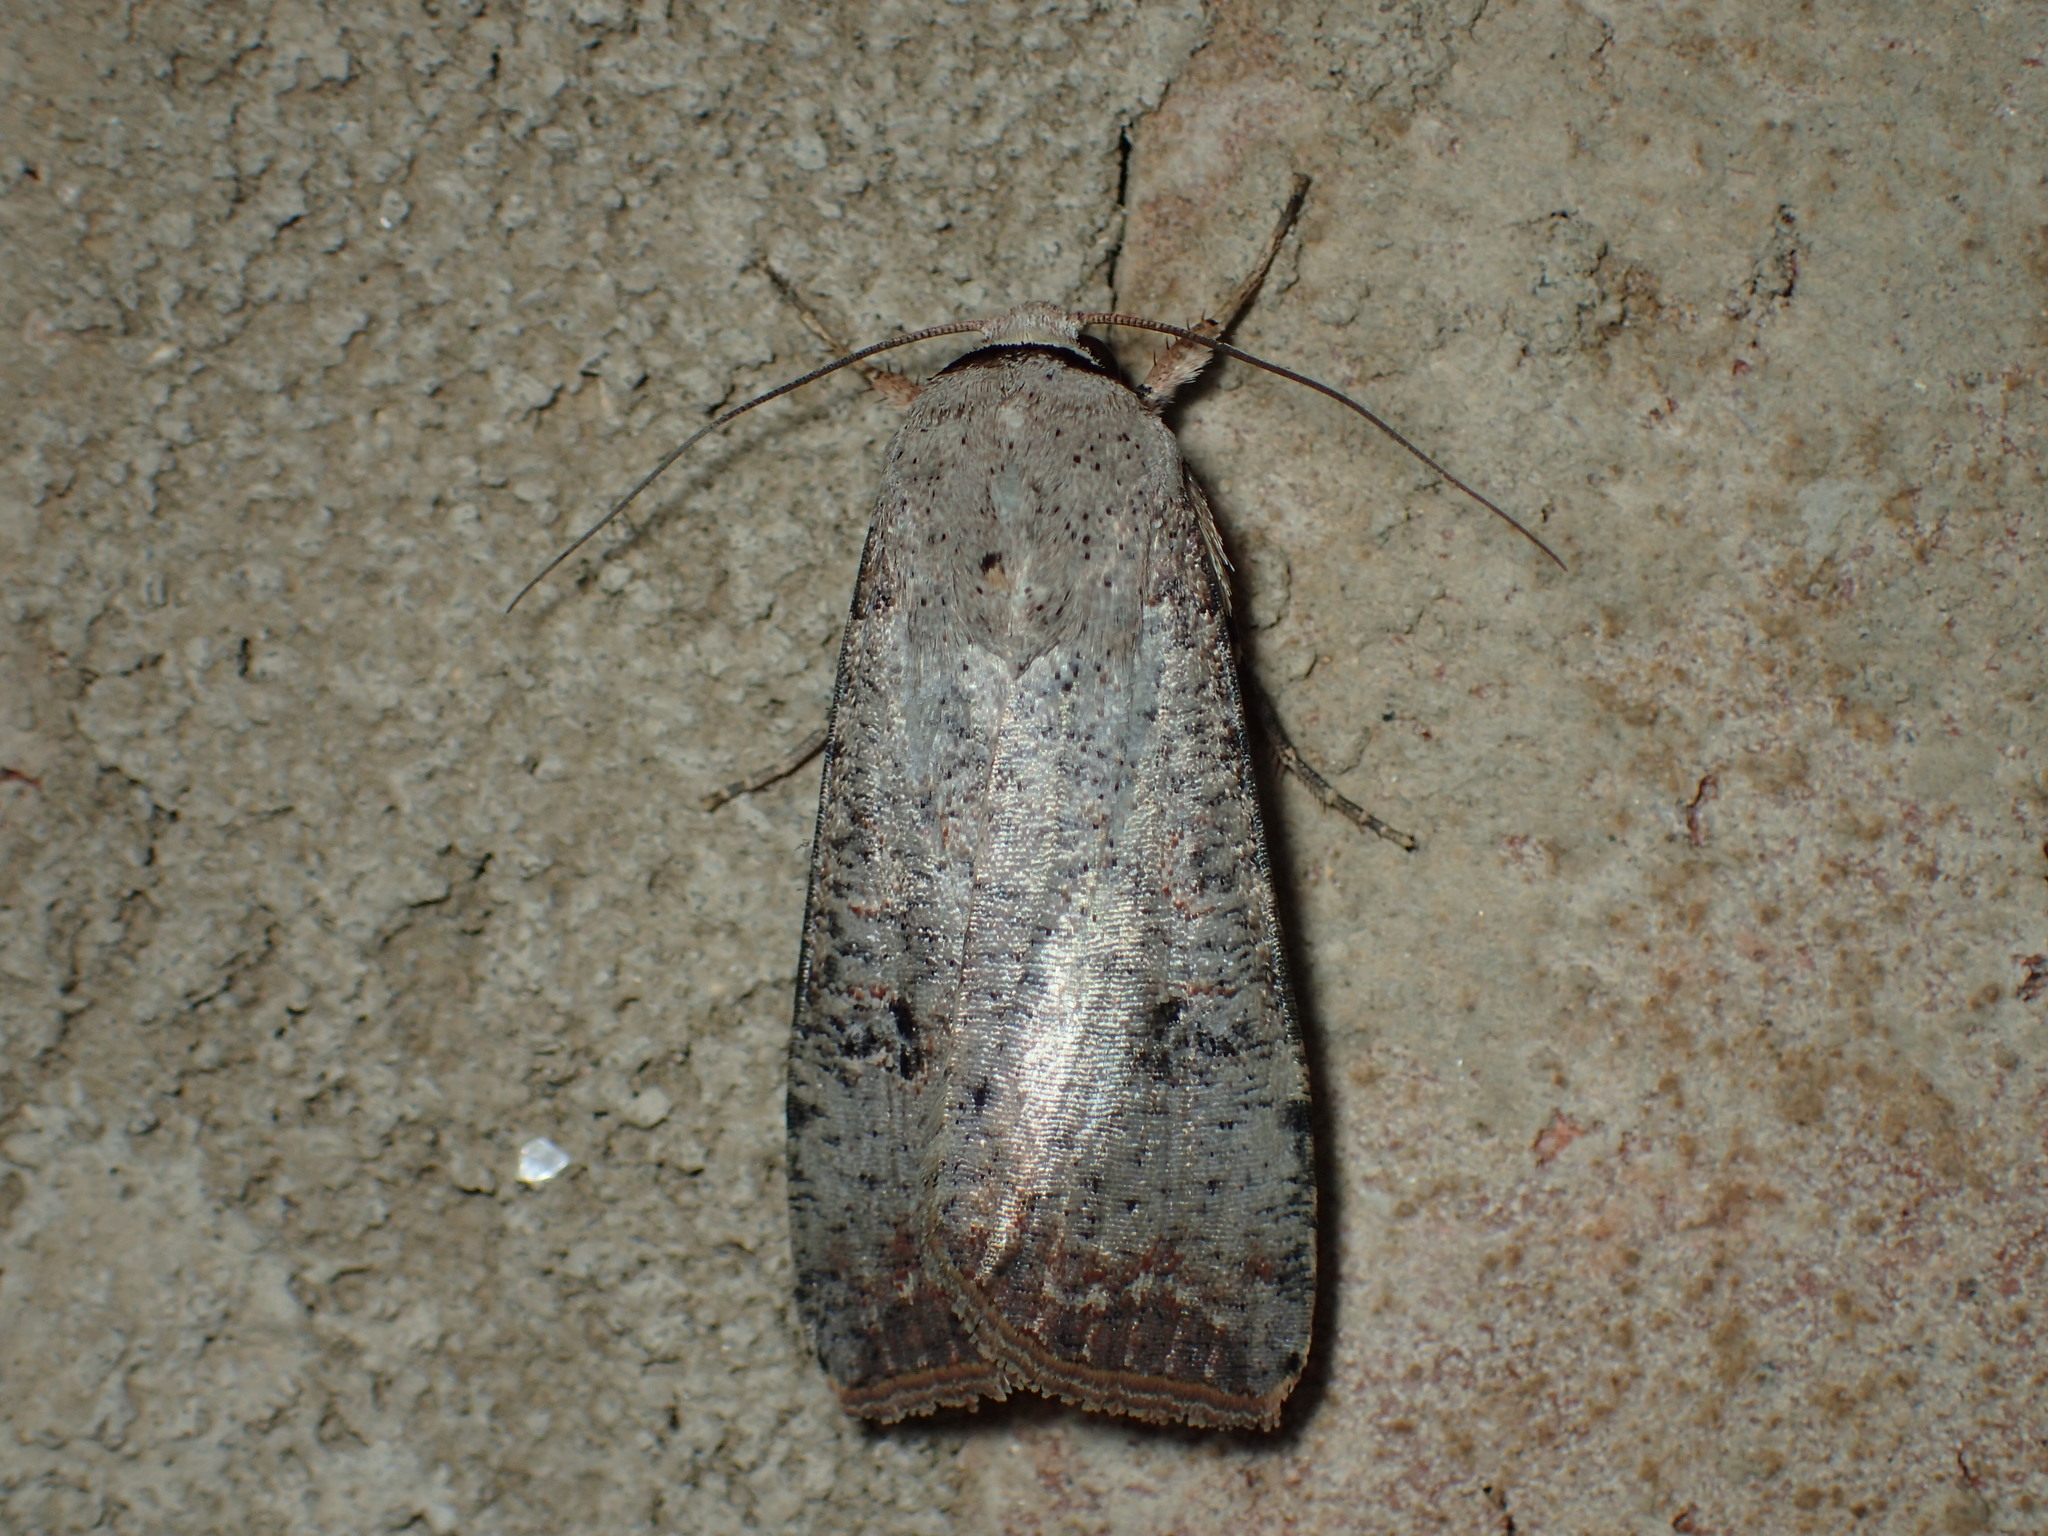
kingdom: Animalia
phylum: Arthropoda
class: Insecta
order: Lepidoptera
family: Noctuidae
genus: Anicla
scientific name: Anicla infecta
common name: Green cutworm
